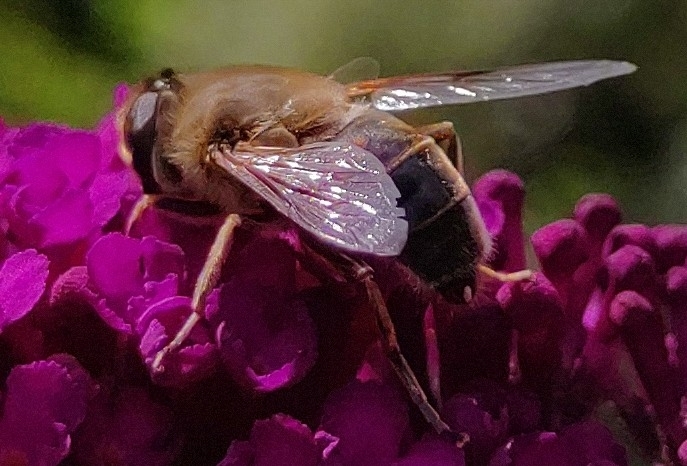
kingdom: Animalia
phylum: Arthropoda
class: Insecta
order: Diptera
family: Syrphidae
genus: Eristalis
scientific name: Eristalis tenax
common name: Drone fly
